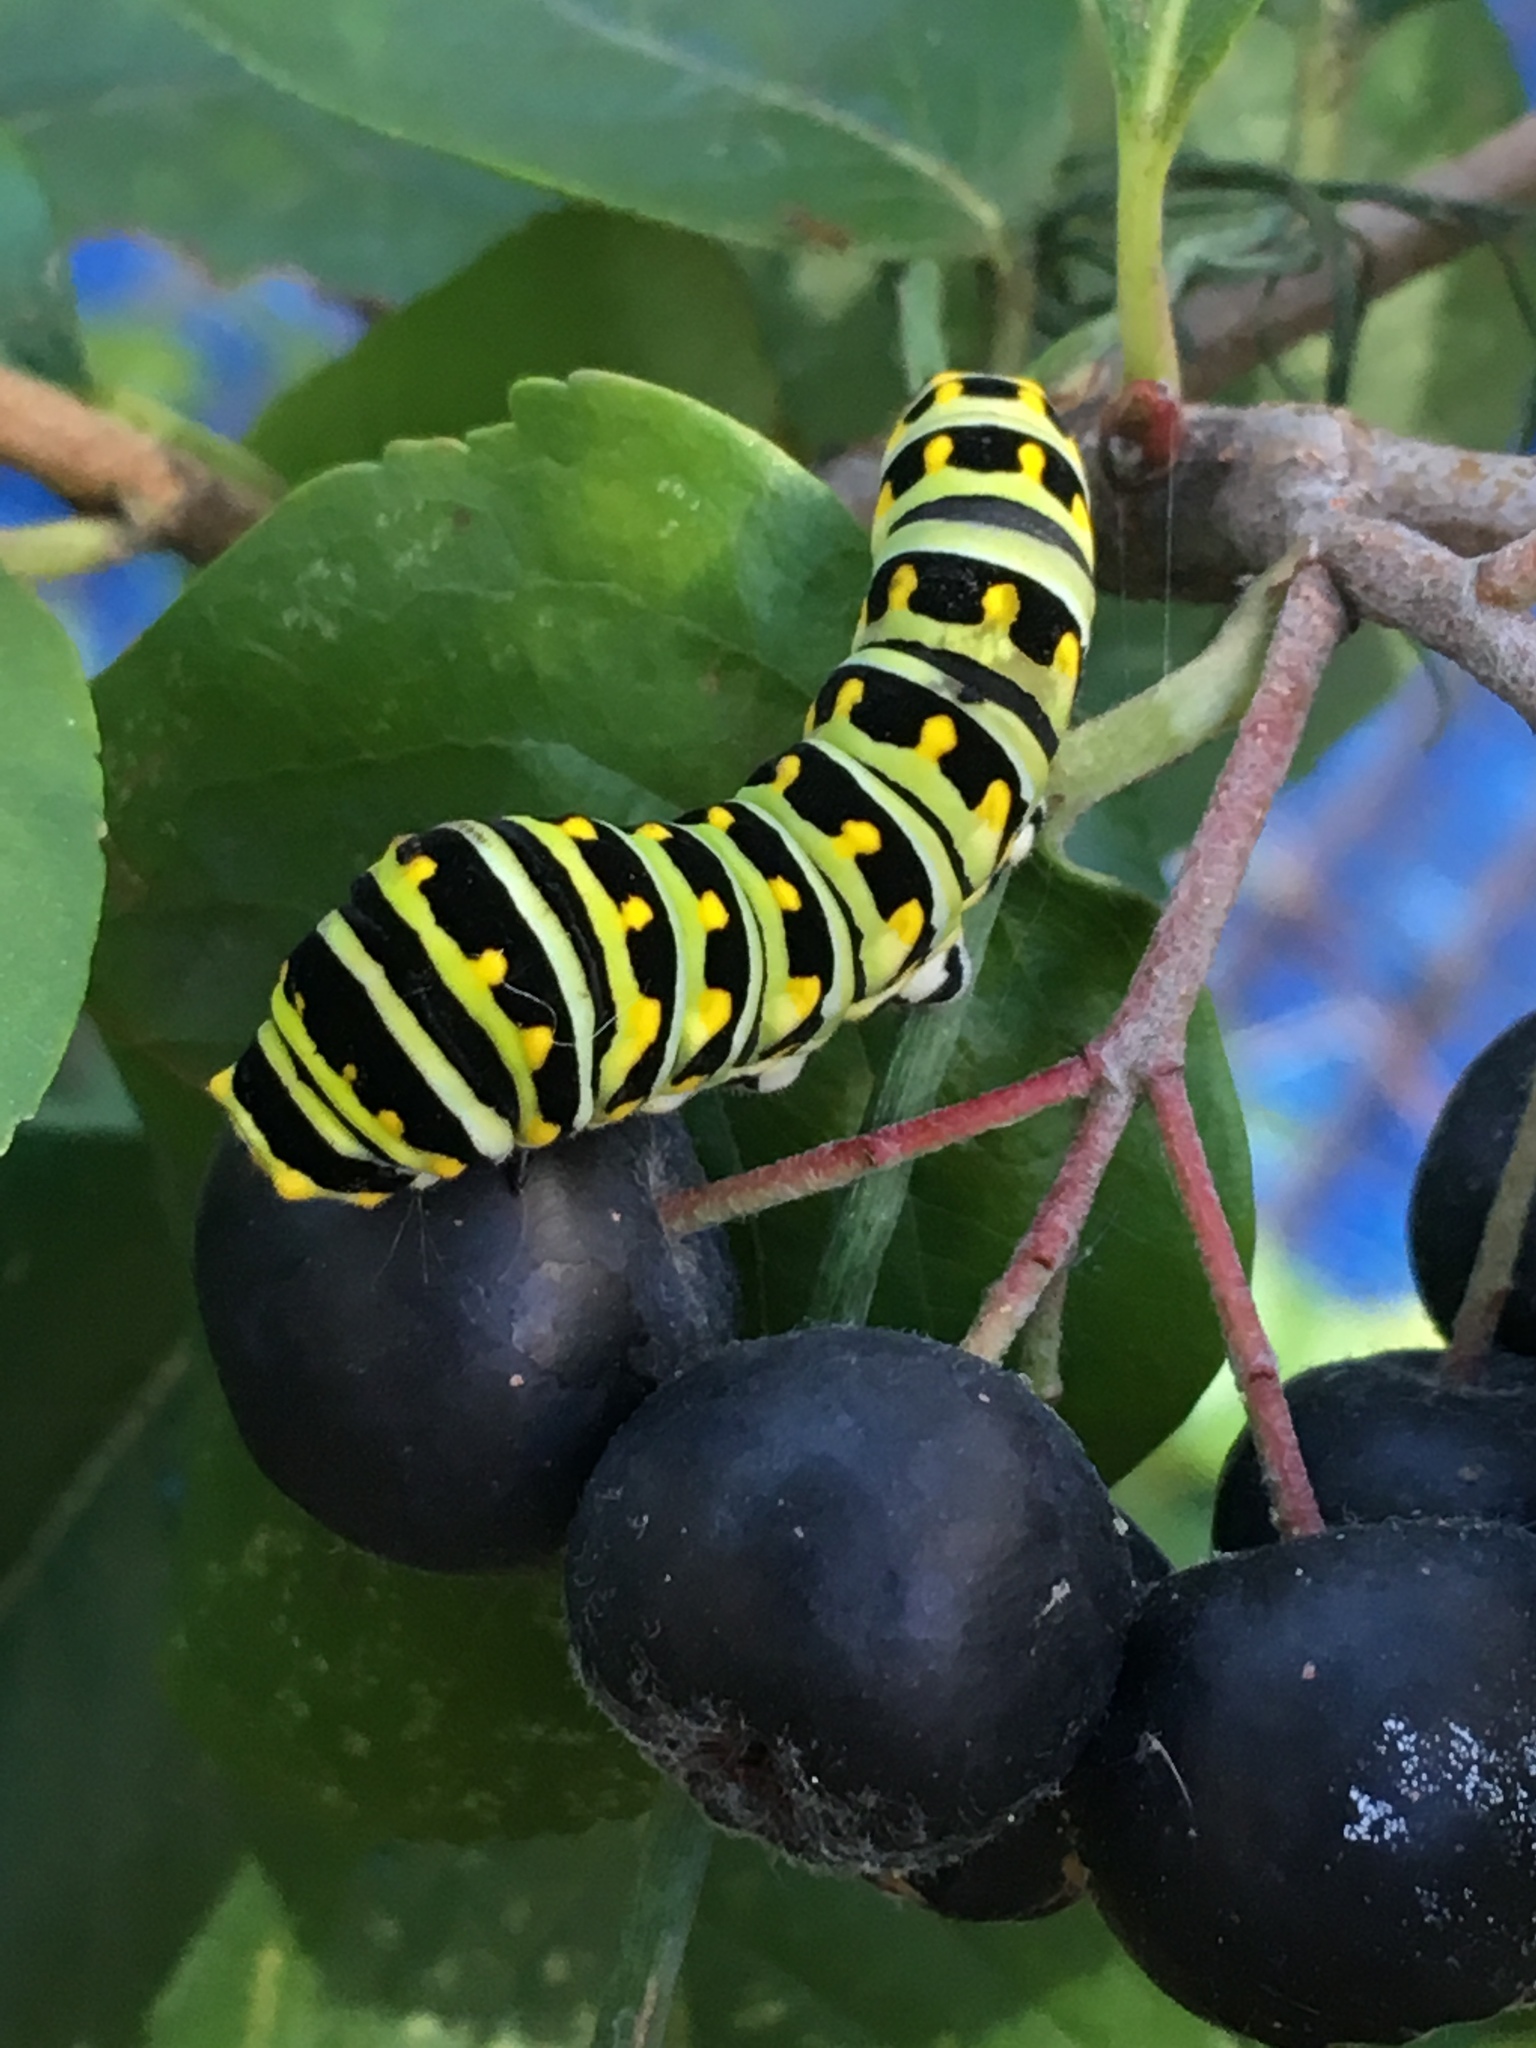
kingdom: Animalia
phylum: Arthropoda
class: Insecta
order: Lepidoptera
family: Papilionidae
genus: Papilio
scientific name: Papilio polyxenes
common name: Black swallowtail
